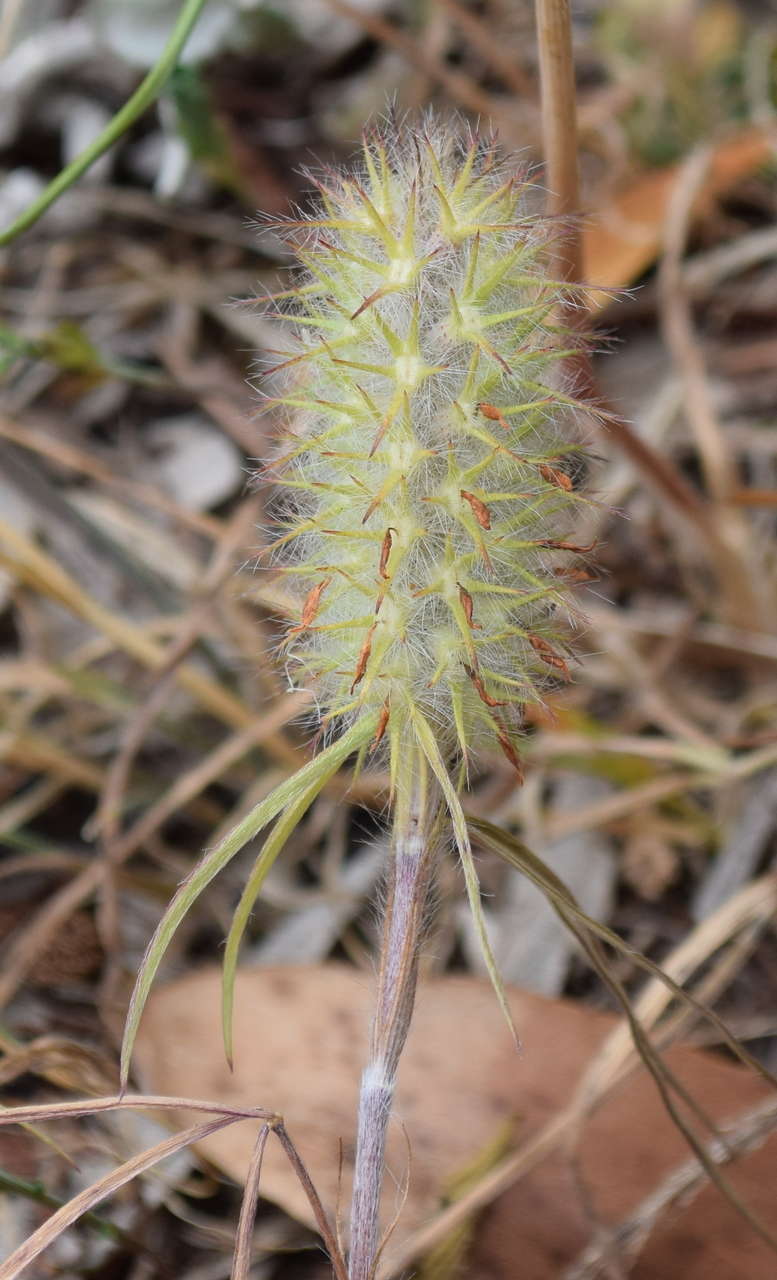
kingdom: Plantae
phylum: Tracheophyta
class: Magnoliopsida
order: Fabales
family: Fabaceae
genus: Trifolium
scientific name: Trifolium angustifolium
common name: Narrow clover
